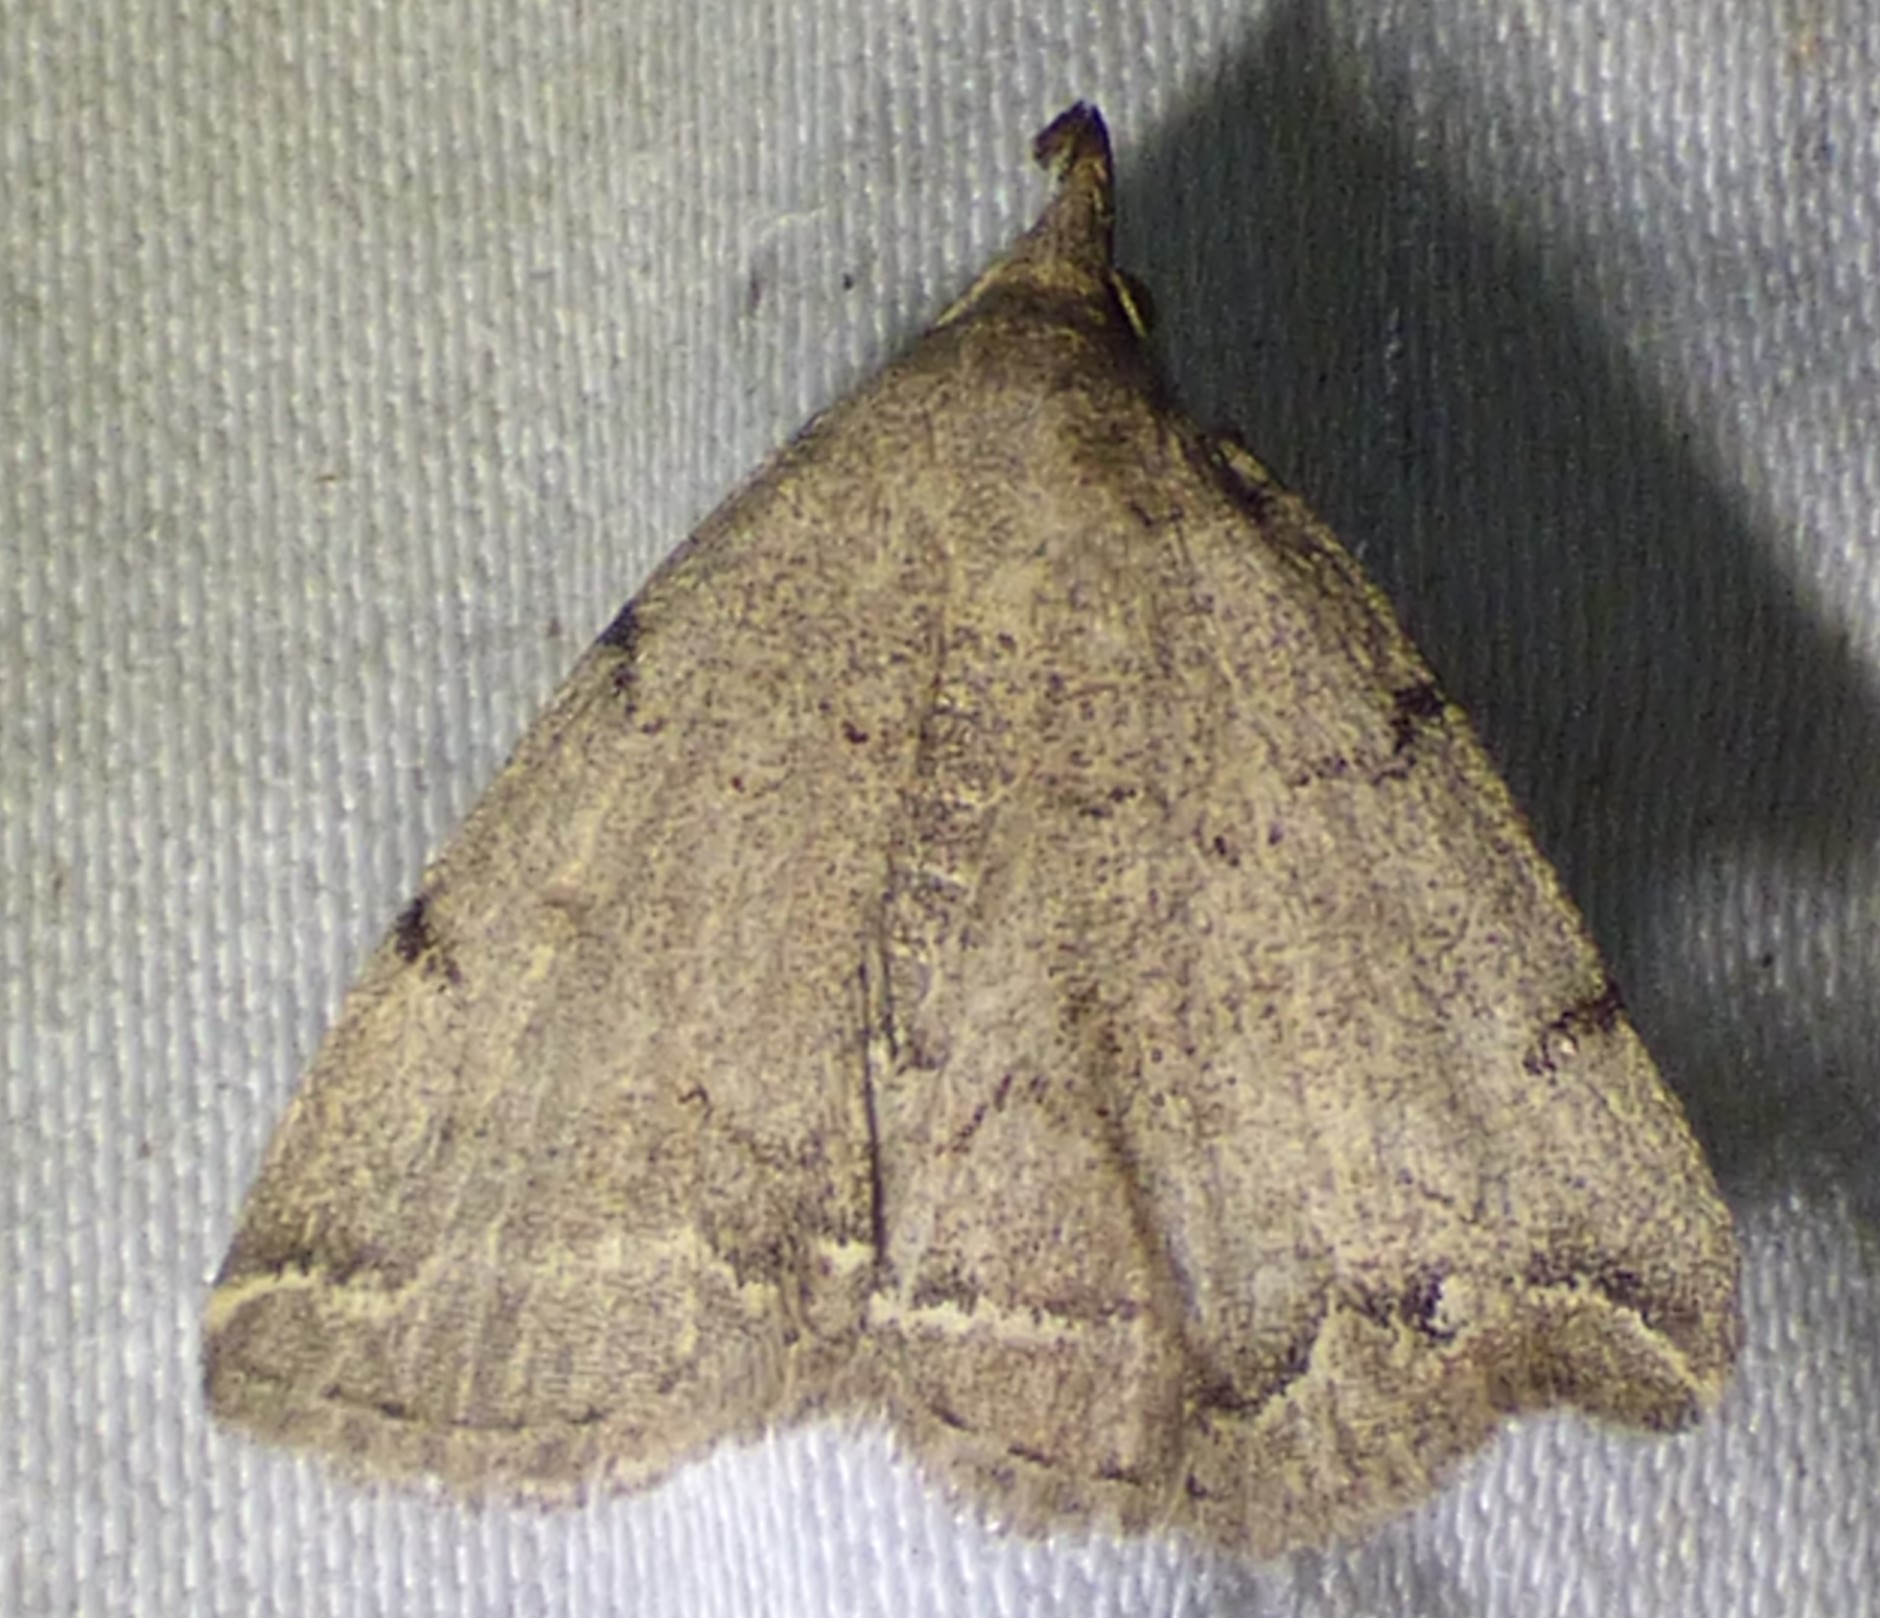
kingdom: Animalia
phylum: Arthropoda
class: Insecta
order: Lepidoptera
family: Erebidae
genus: Zanclognatha
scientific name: Zanclognatha theralis
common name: Flagged fan-foot
